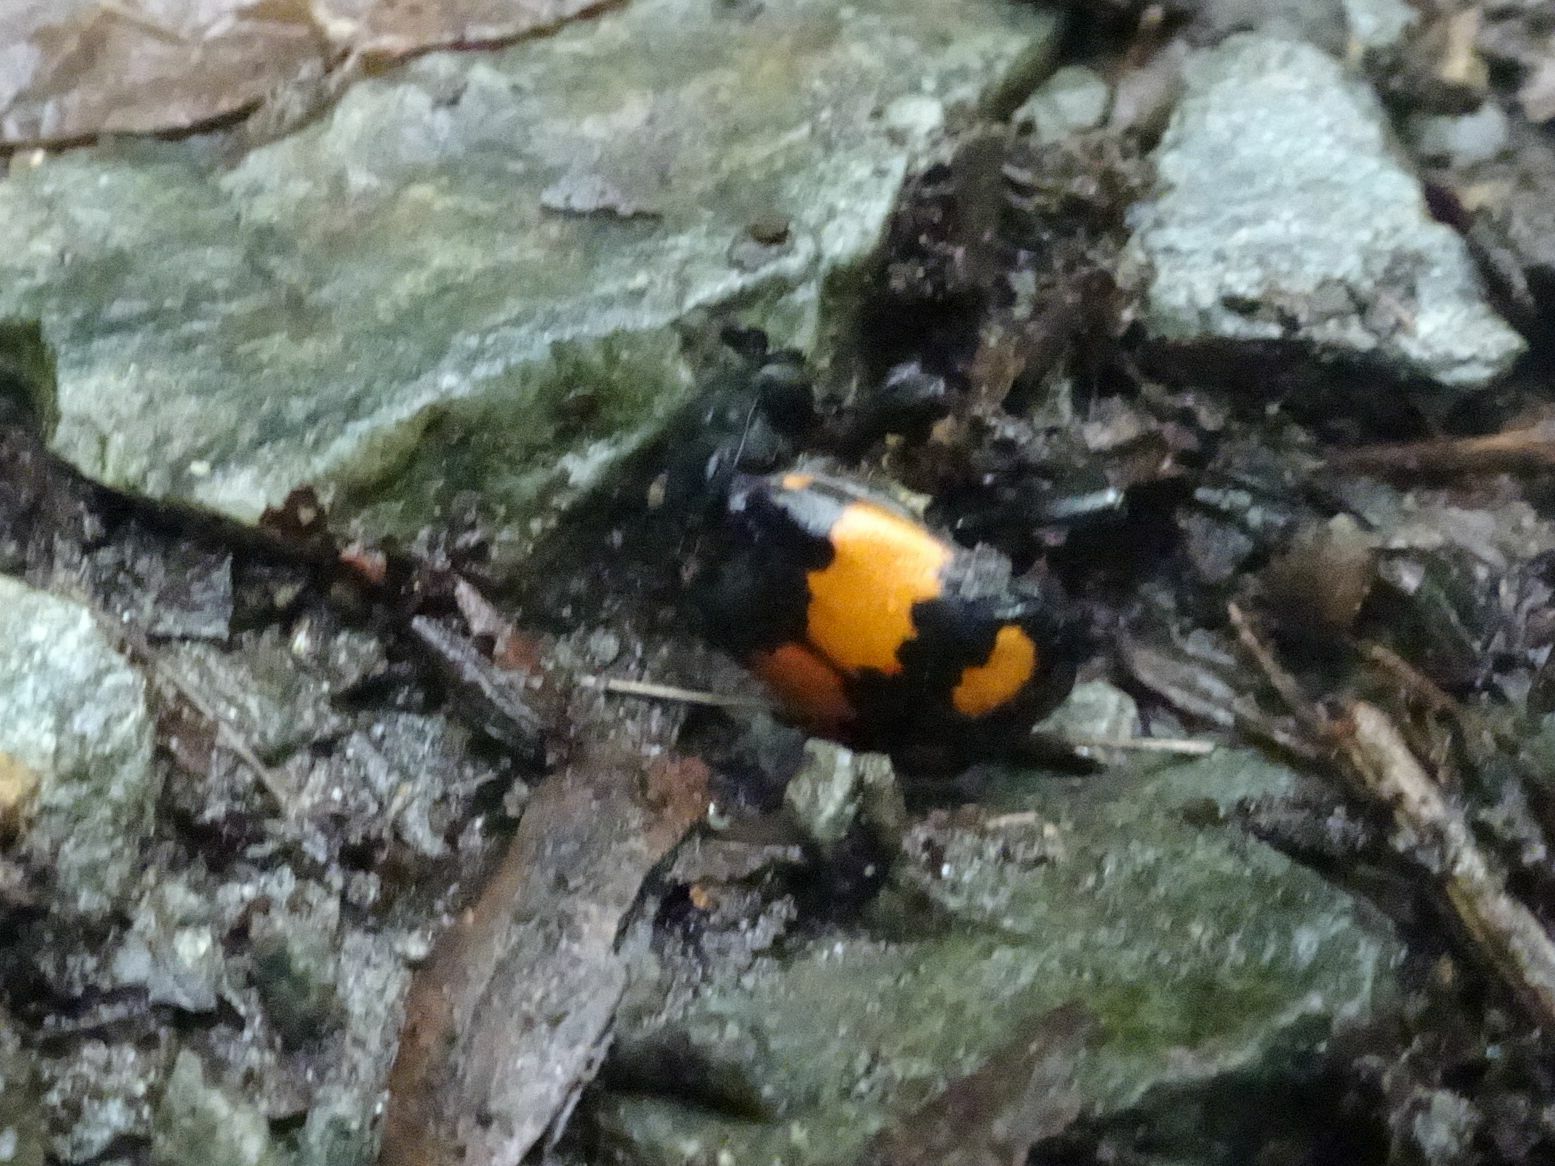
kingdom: Animalia
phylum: Arthropoda
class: Insecta
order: Coleoptera
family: Staphylinidae
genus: Nicrophorus
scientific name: Nicrophorus vespilloides
